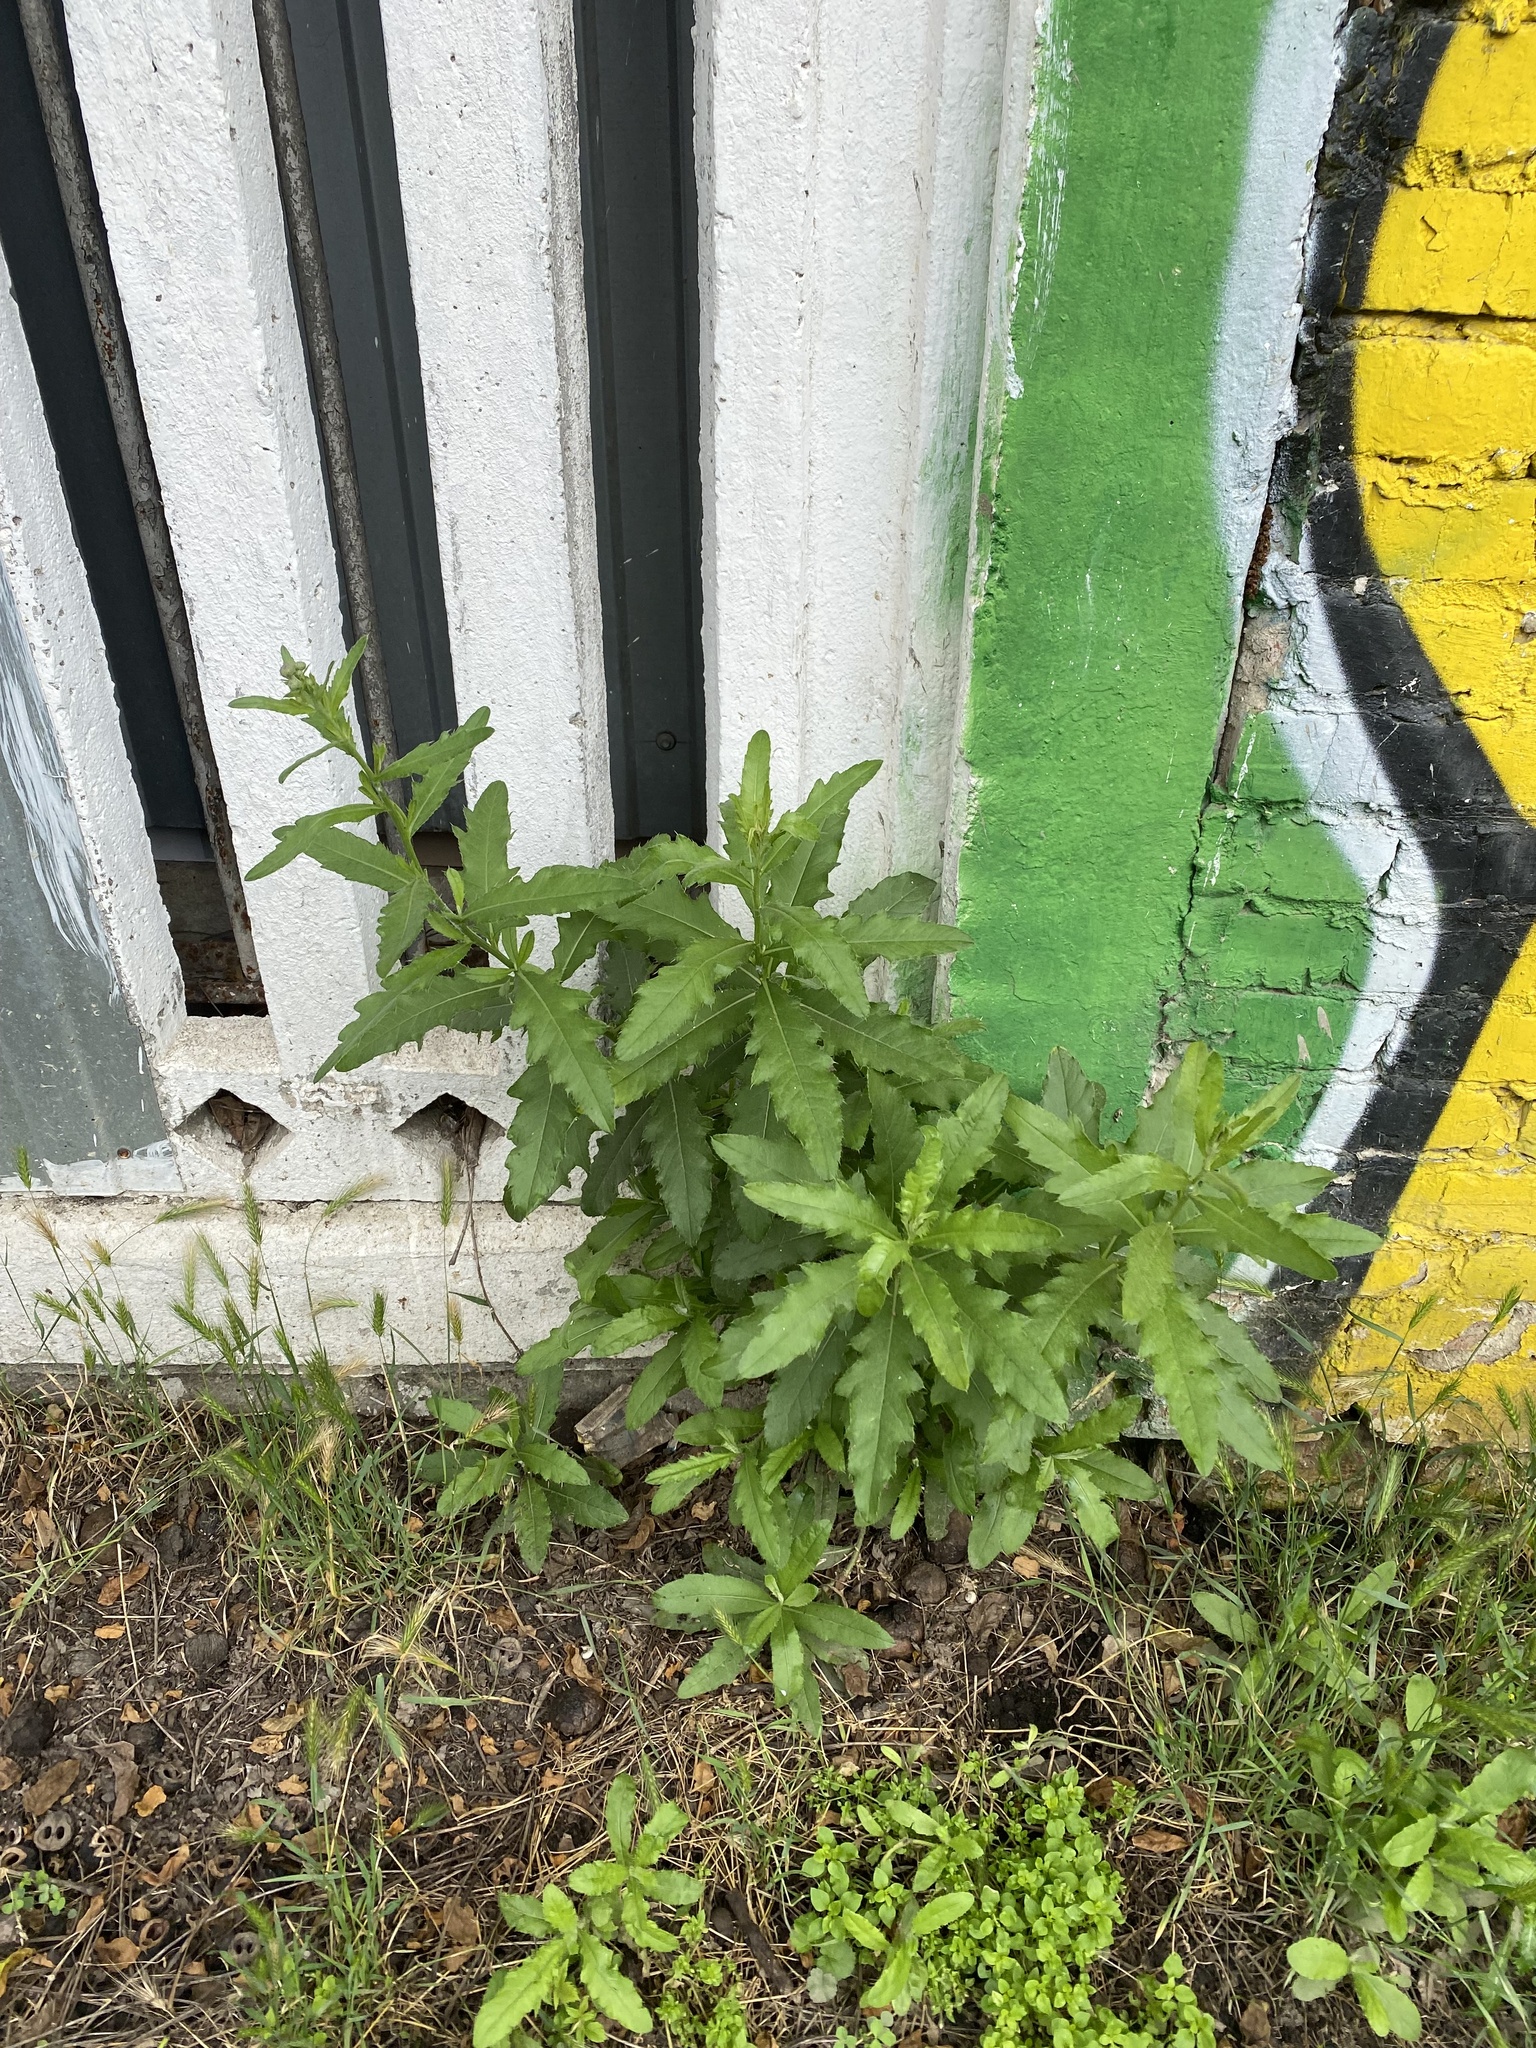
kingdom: Plantae
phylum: Tracheophyta
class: Magnoliopsida
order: Asterales
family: Asteraceae
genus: Cirsium
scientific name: Cirsium arvense
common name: Creeping thistle
